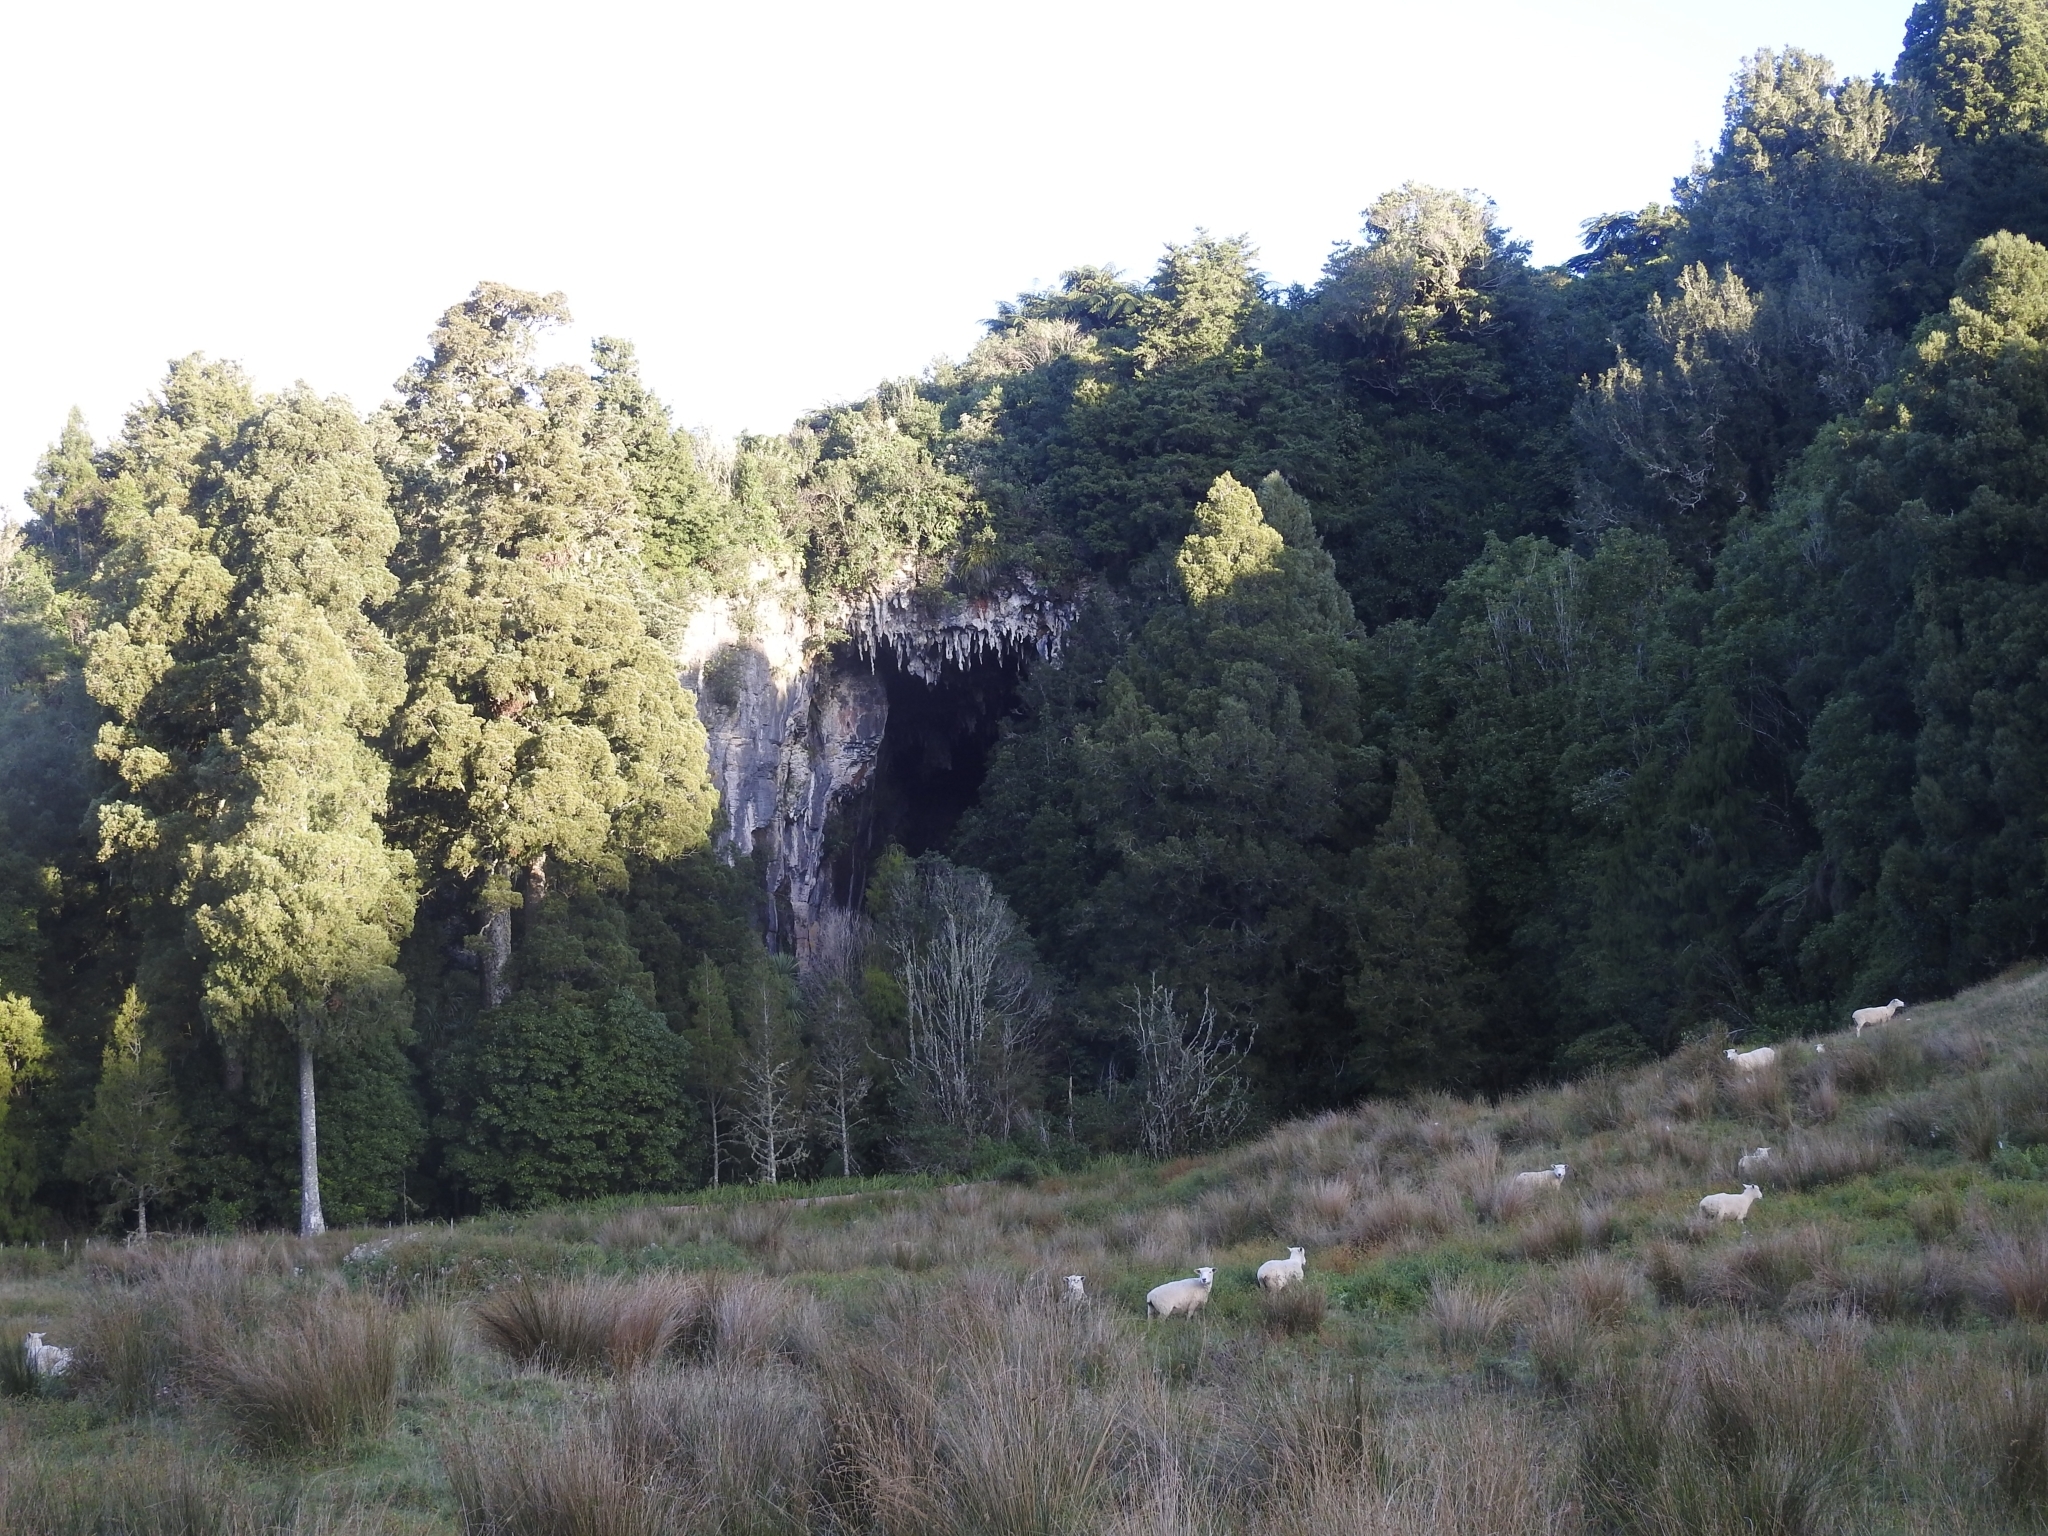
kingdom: Plantae
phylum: Tracheophyta
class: Pinopsida
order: Pinales
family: Podocarpaceae
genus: Dacrycarpus
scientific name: Dacrycarpus dacrydioides
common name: White pine
